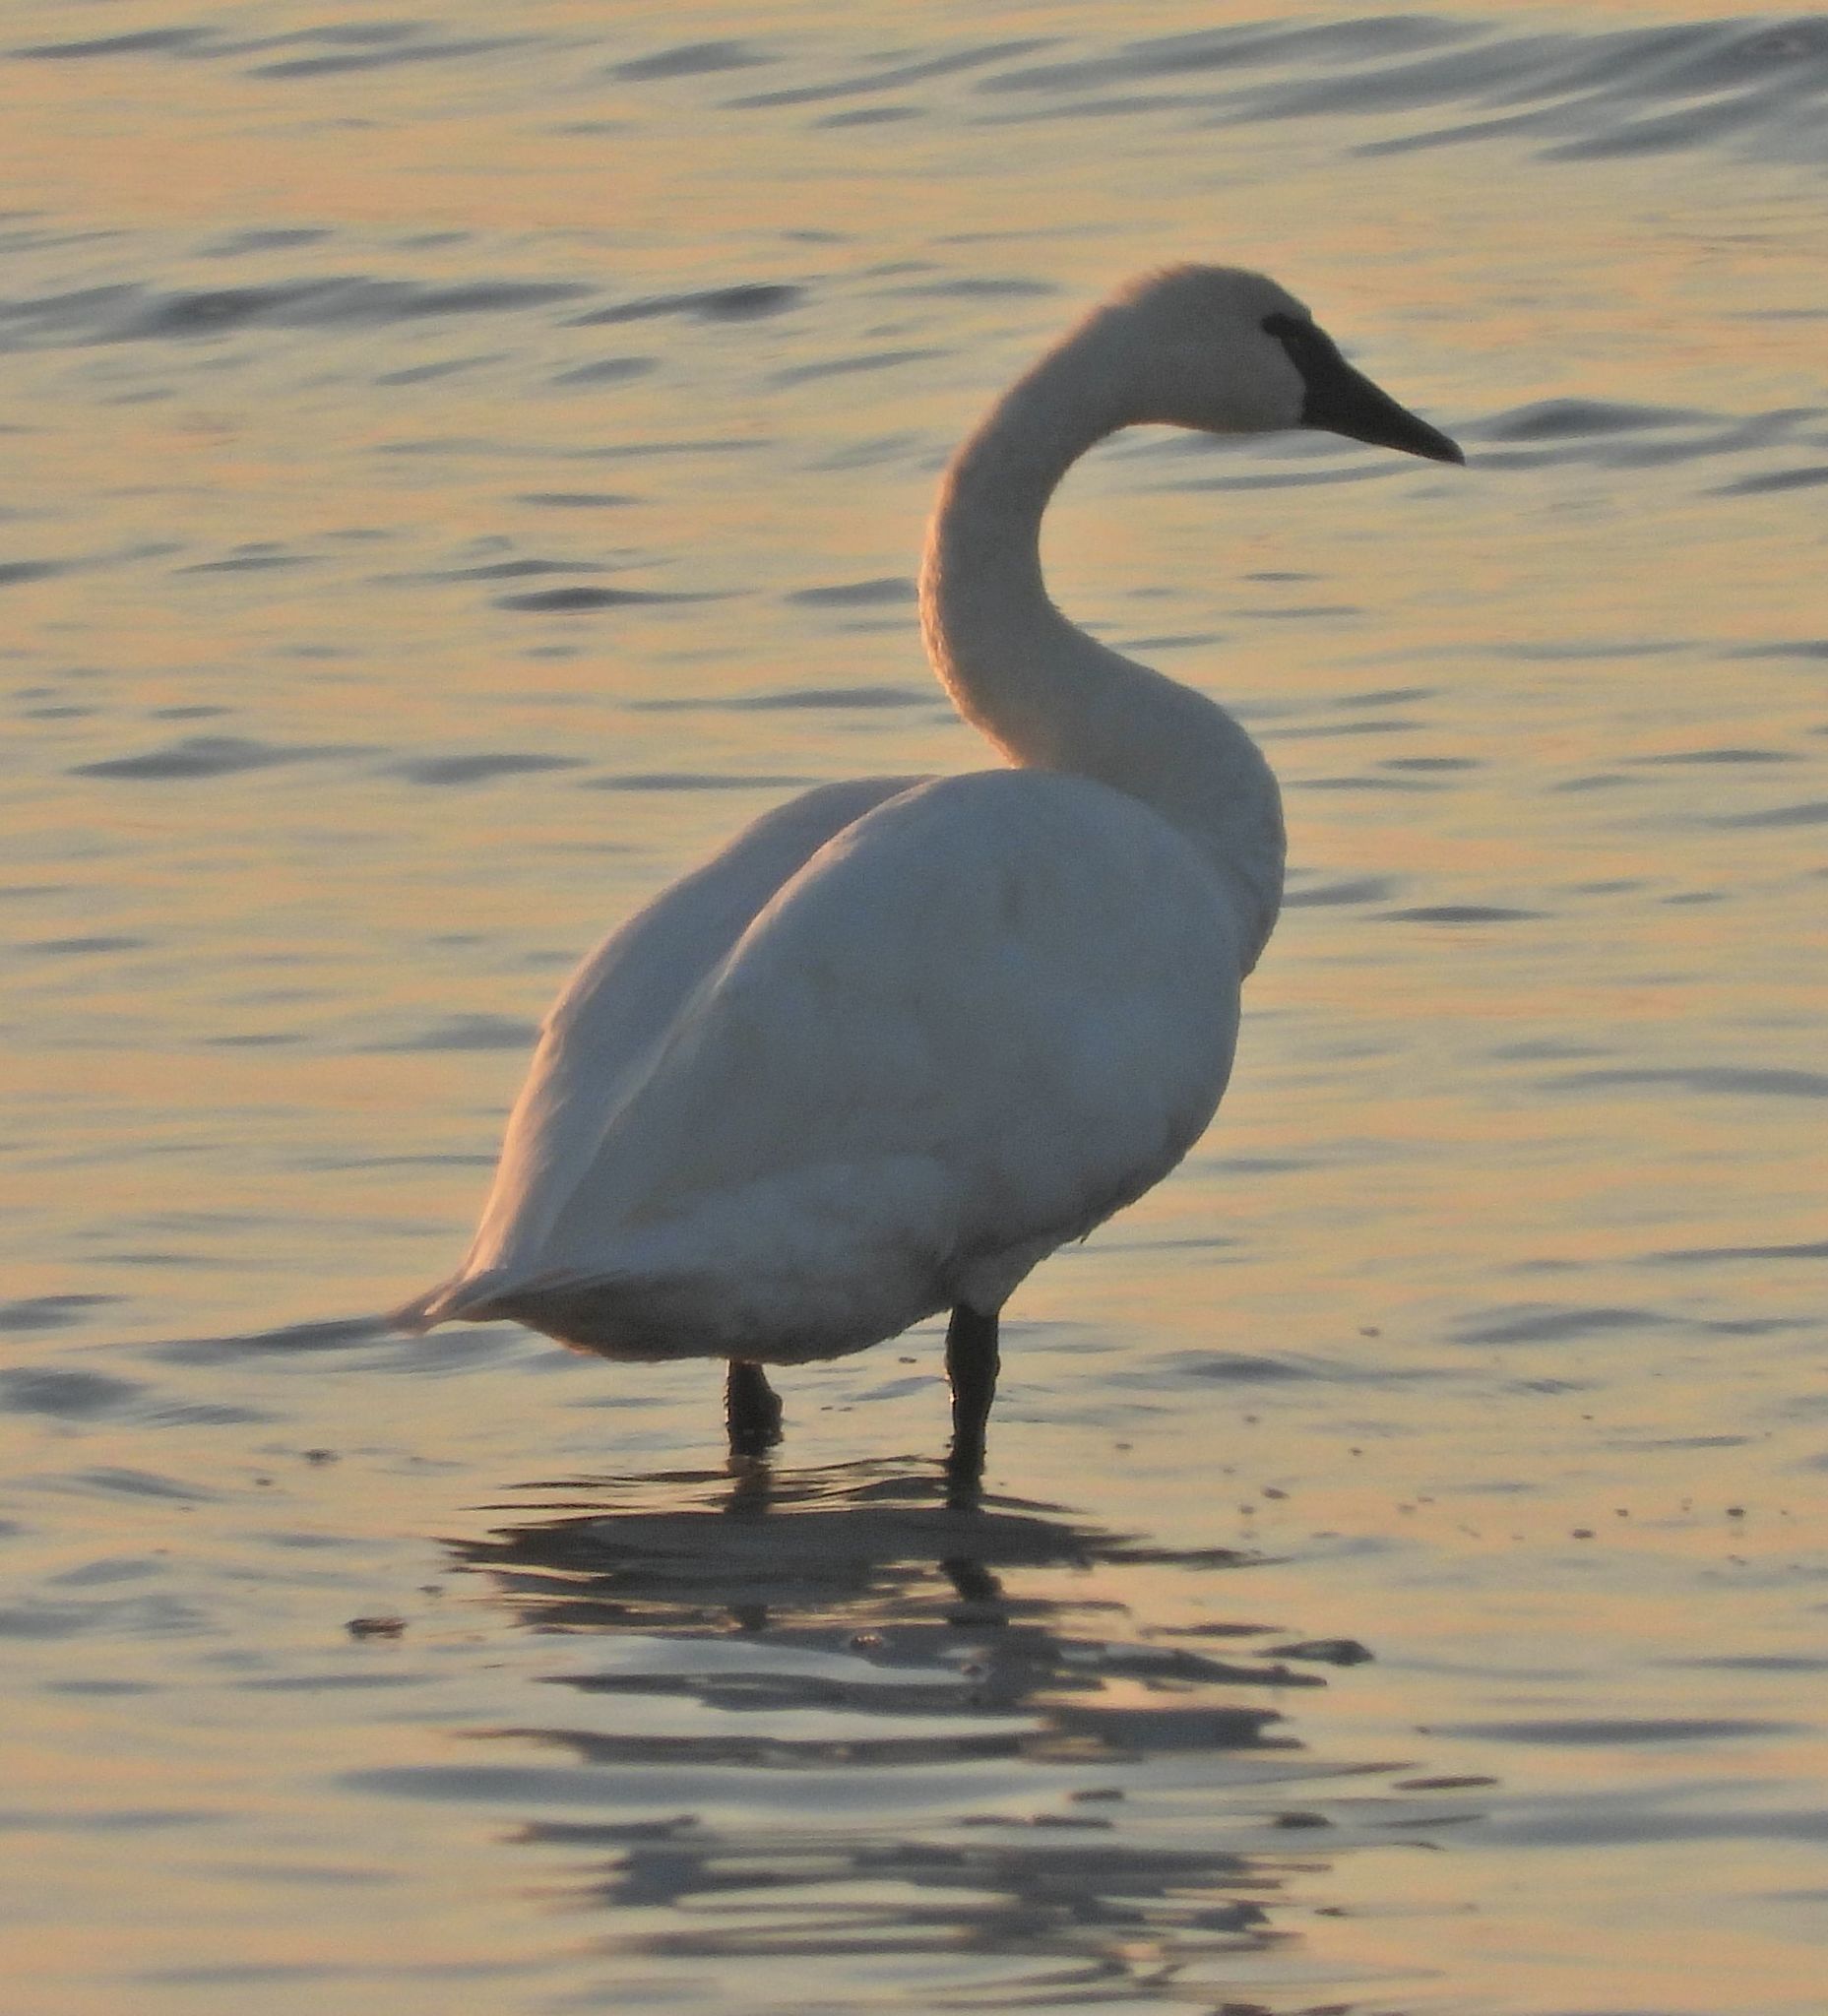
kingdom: Animalia
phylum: Chordata
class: Aves
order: Anseriformes
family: Anatidae
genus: Cygnus
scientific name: Cygnus columbianus
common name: Tundra swan
